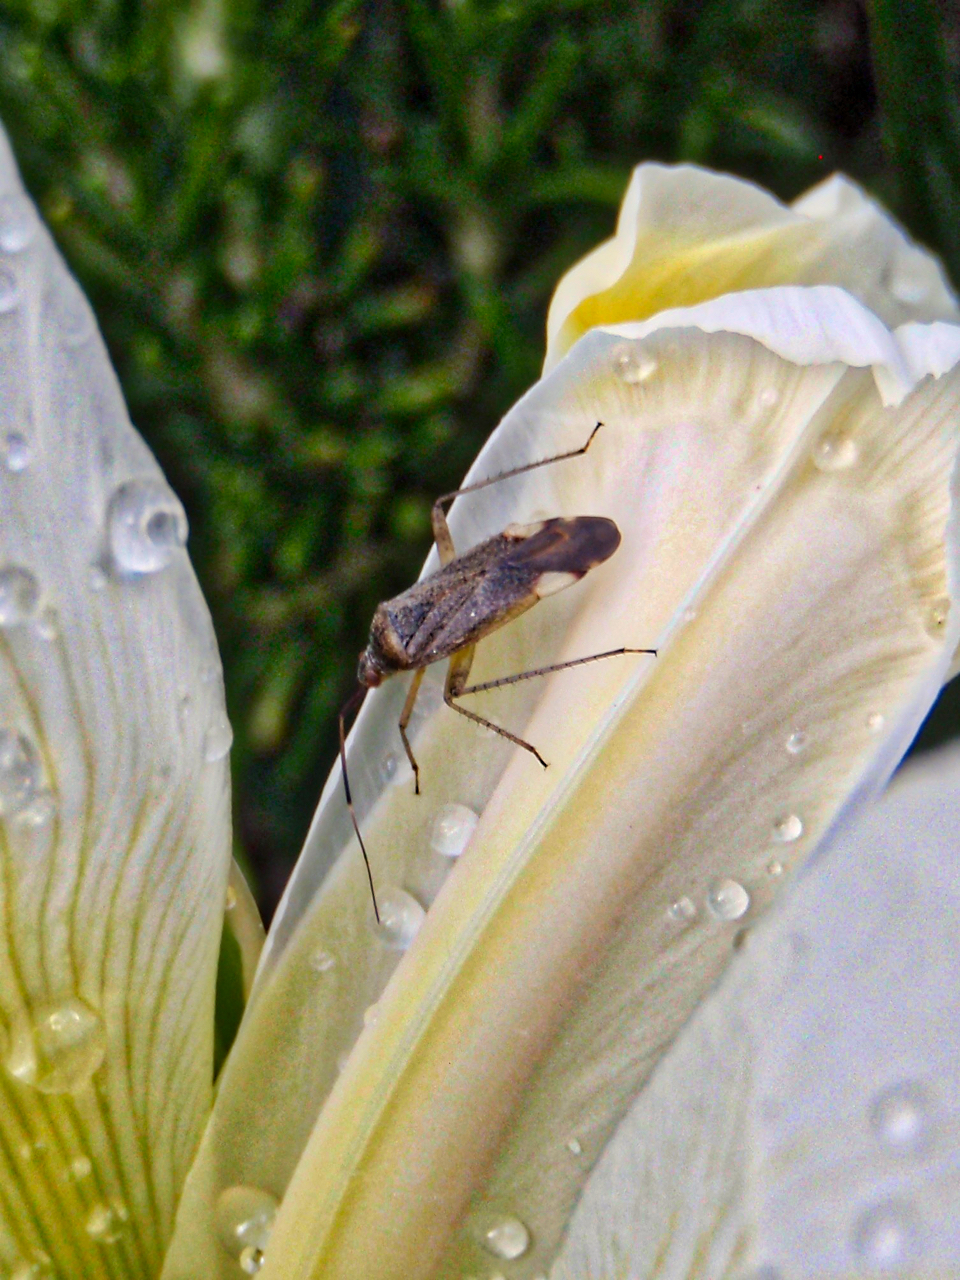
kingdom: Animalia
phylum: Arthropoda
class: Insecta
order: Hemiptera
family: Miridae
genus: Closterotomus
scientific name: Closterotomus annulus
